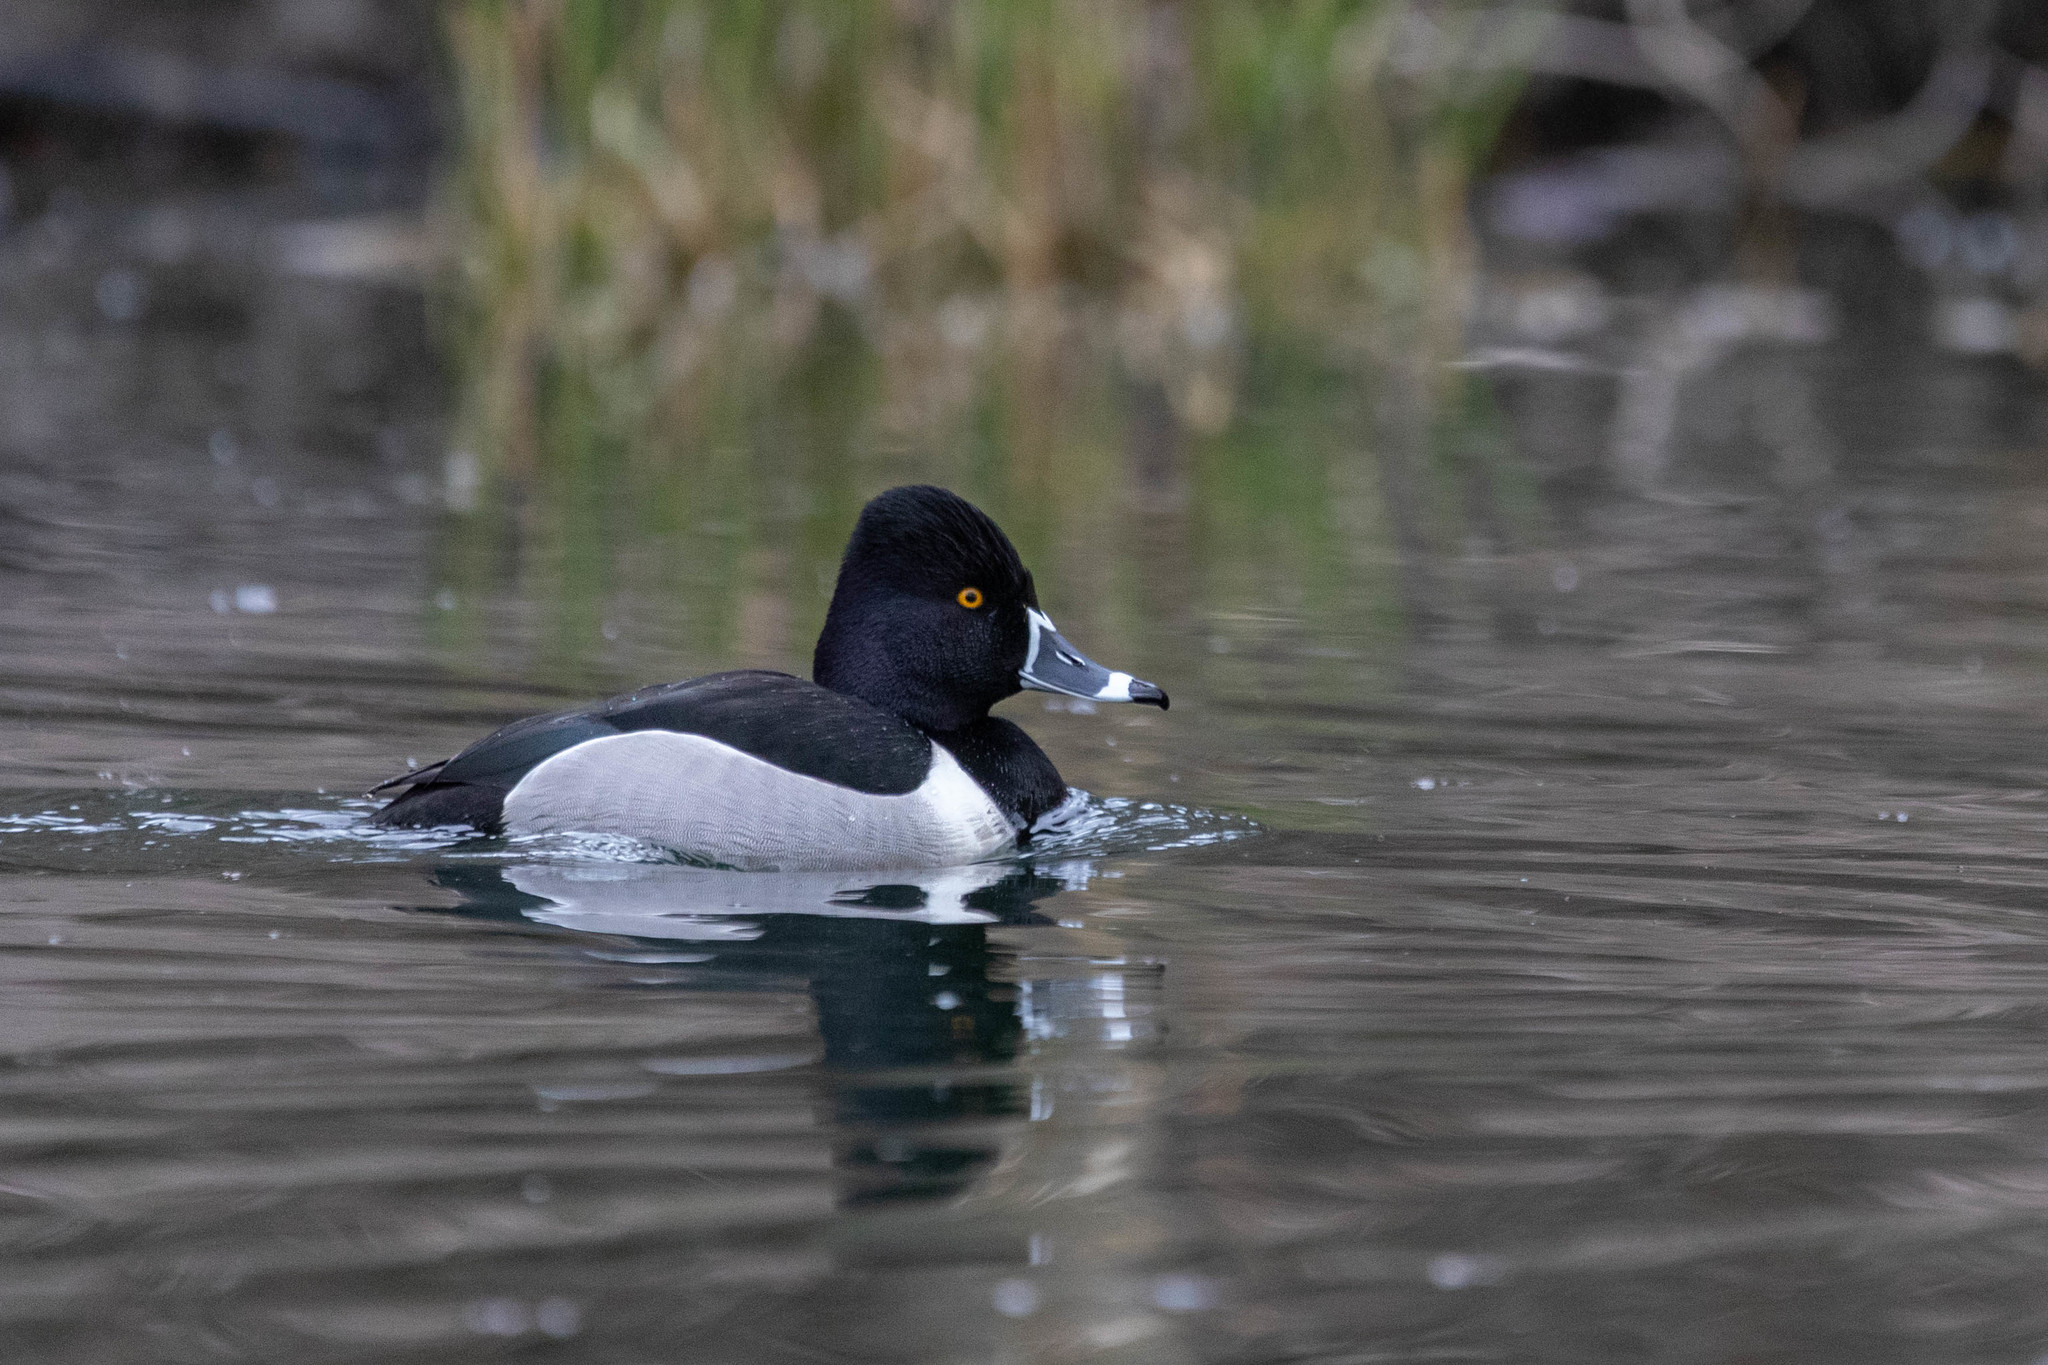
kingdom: Animalia
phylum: Chordata
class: Aves
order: Anseriformes
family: Anatidae
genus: Aythya
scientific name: Aythya collaris
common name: Ring-necked duck
